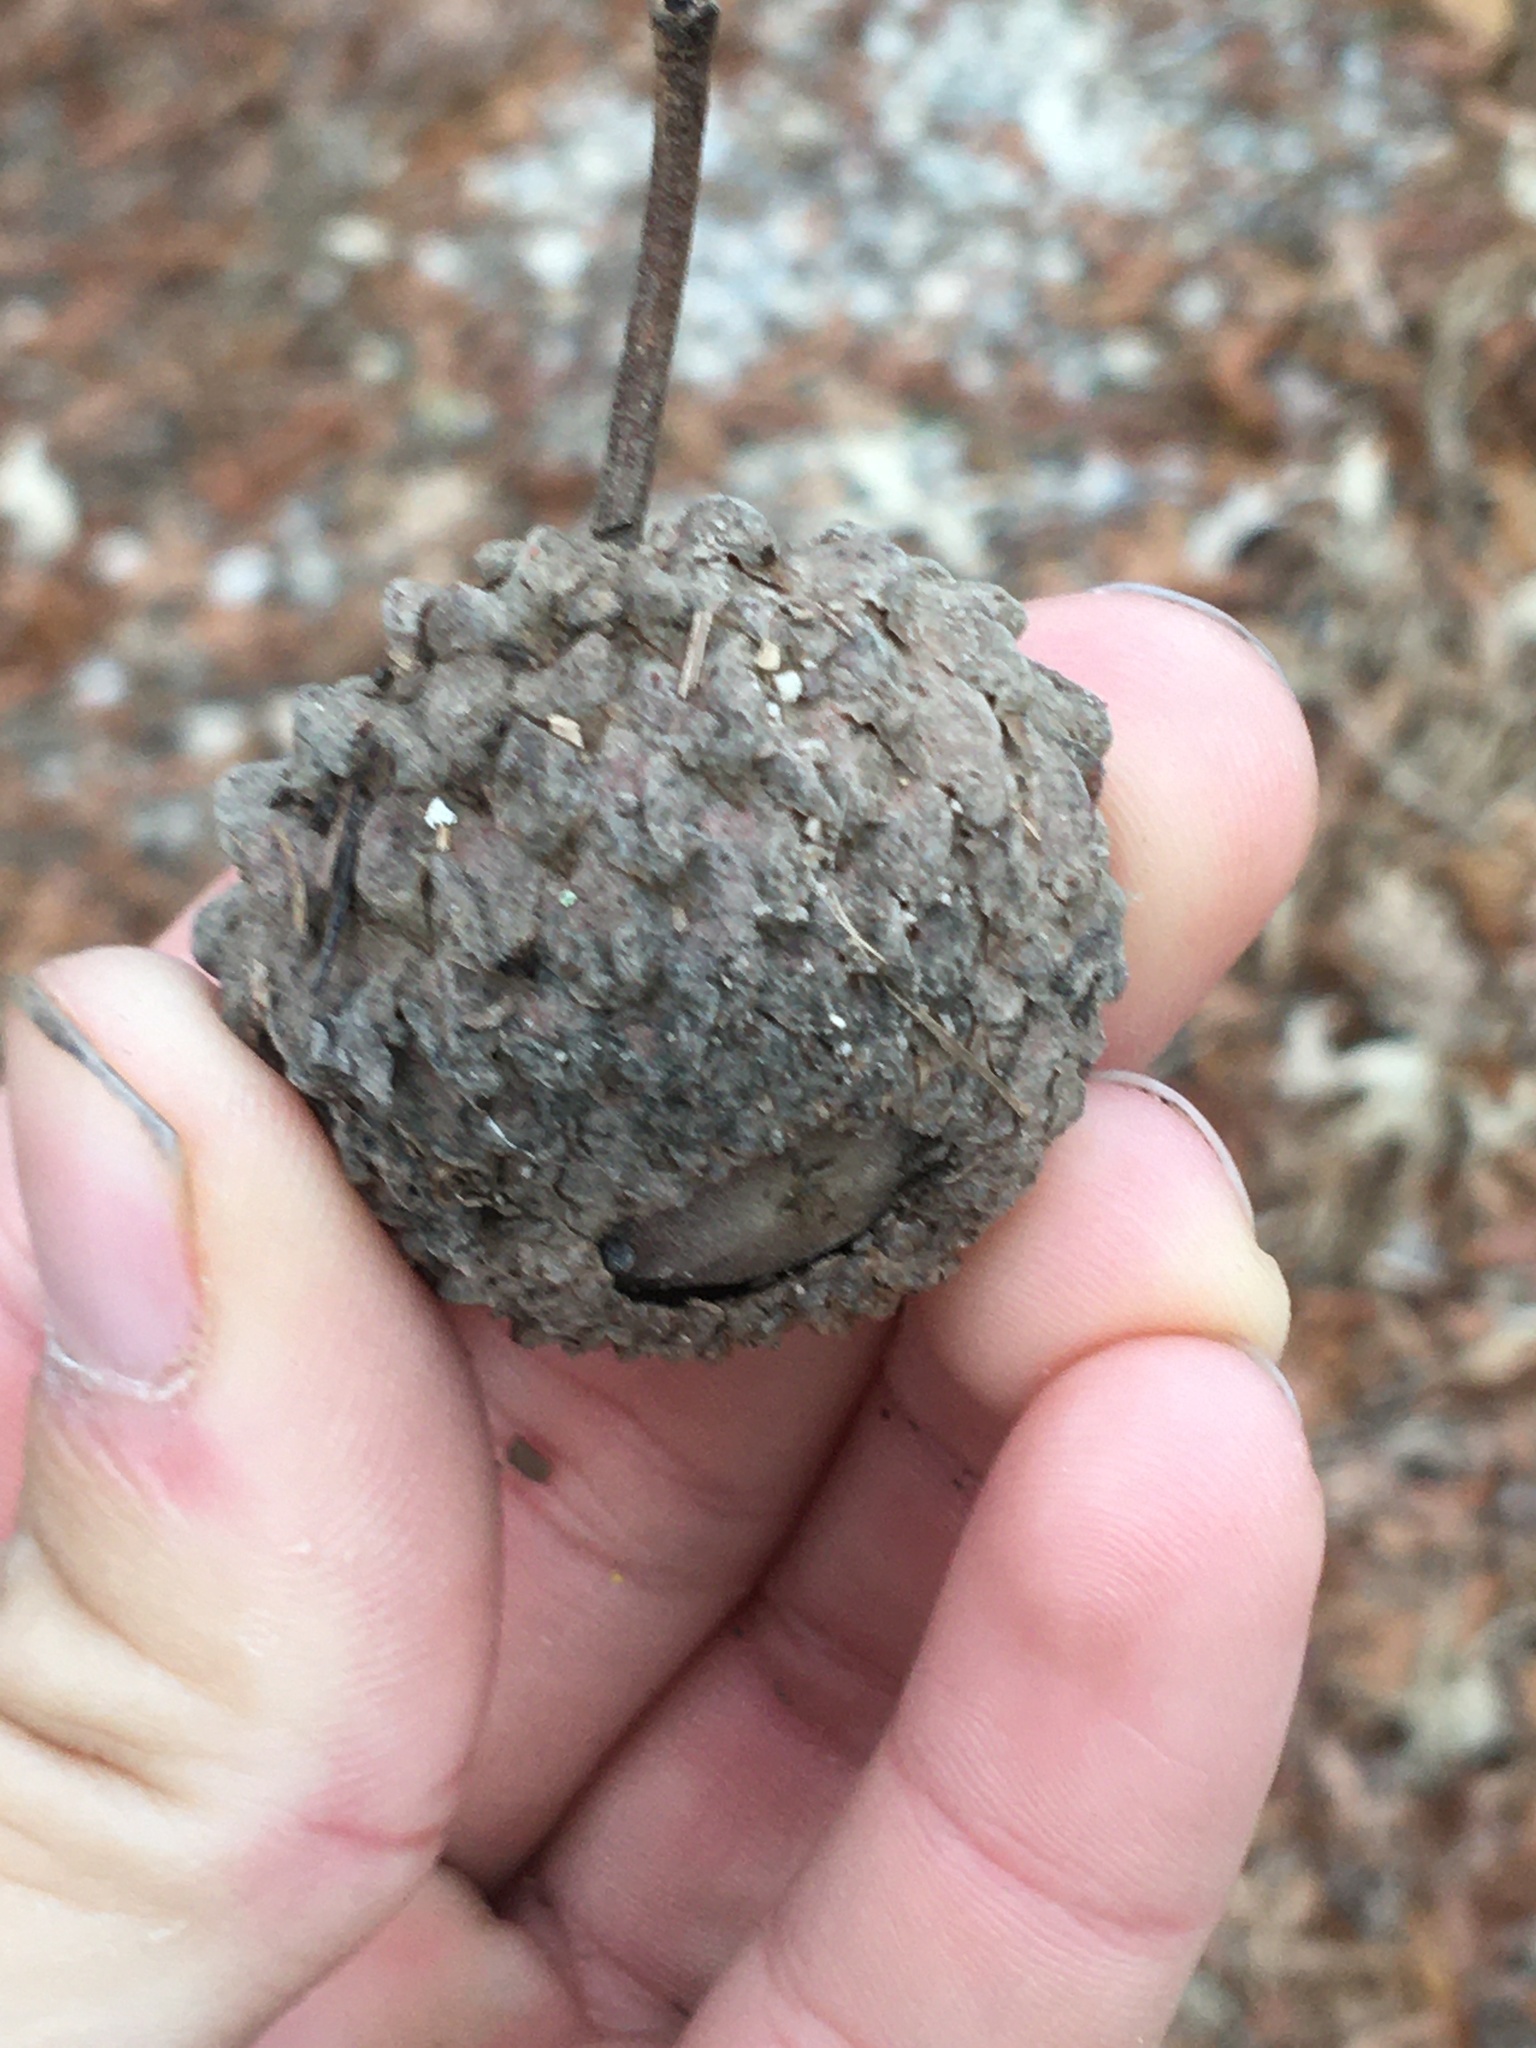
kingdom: Plantae
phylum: Tracheophyta
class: Magnoliopsida
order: Fagales
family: Fagaceae
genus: Quercus
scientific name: Quercus macrocarpa
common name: Bur oak
